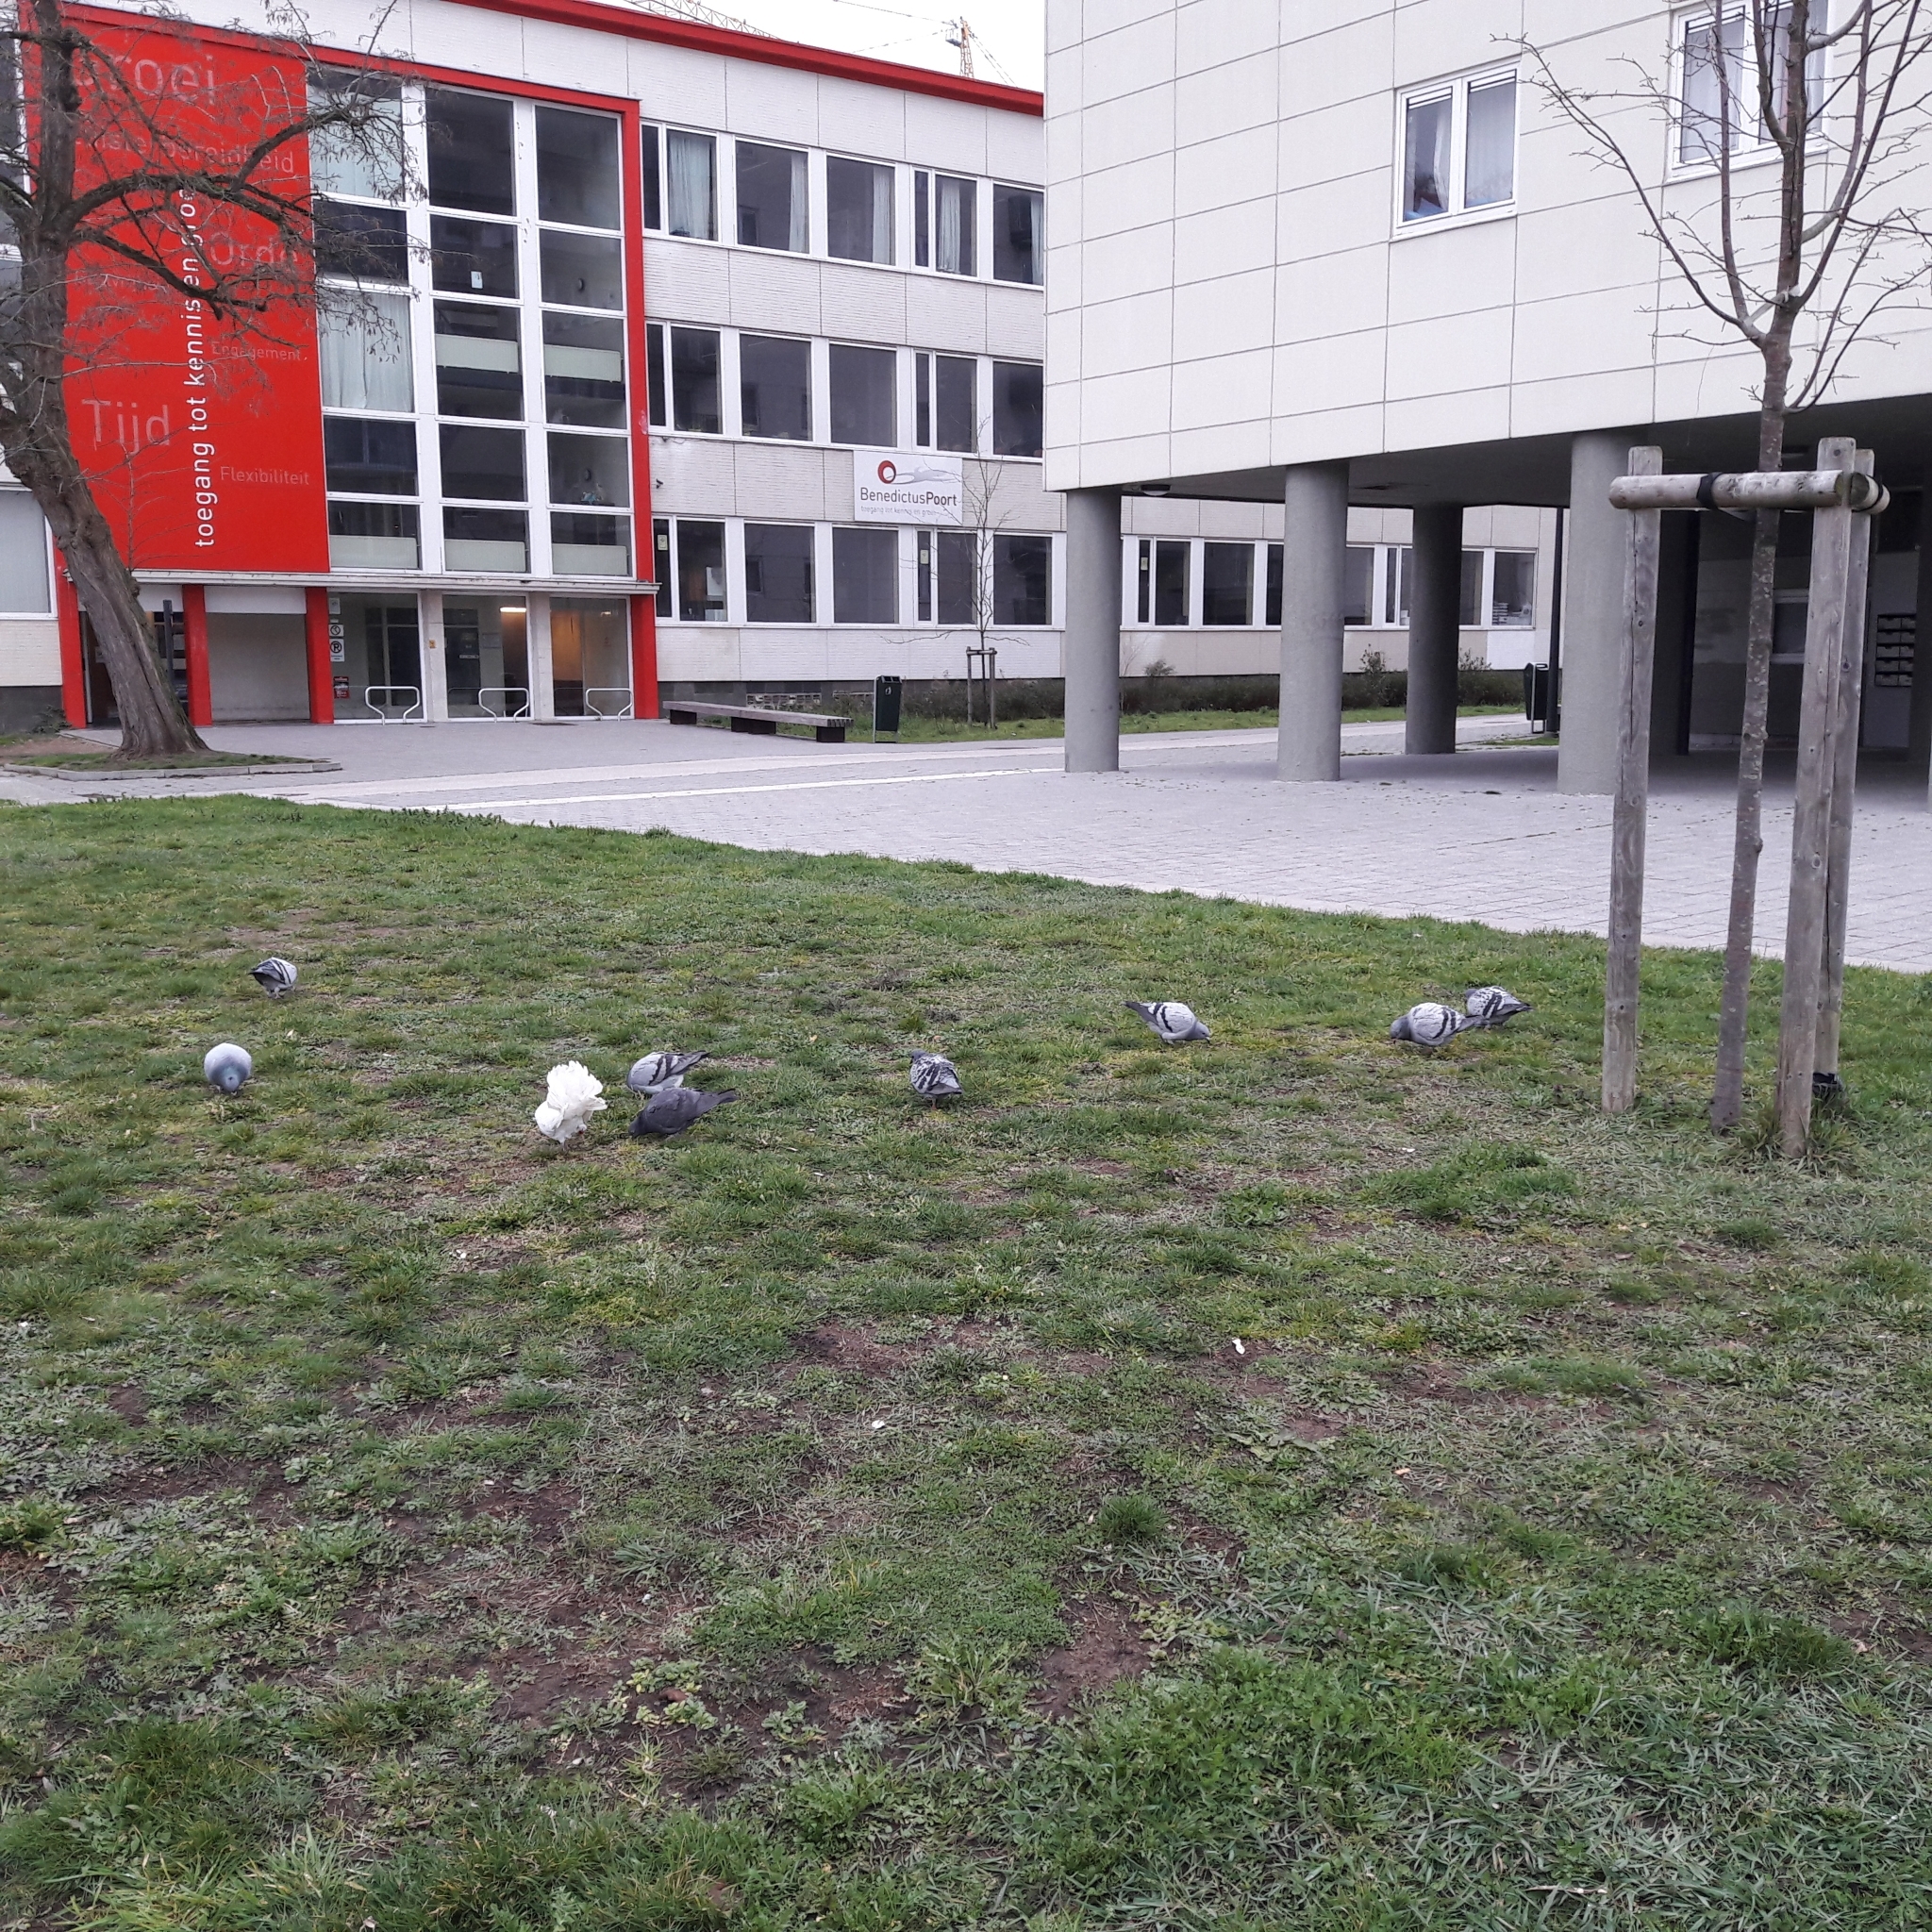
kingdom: Animalia
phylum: Chordata
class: Aves
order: Columbiformes
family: Columbidae
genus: Columba
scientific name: Columba livia
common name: Rock pigeon
